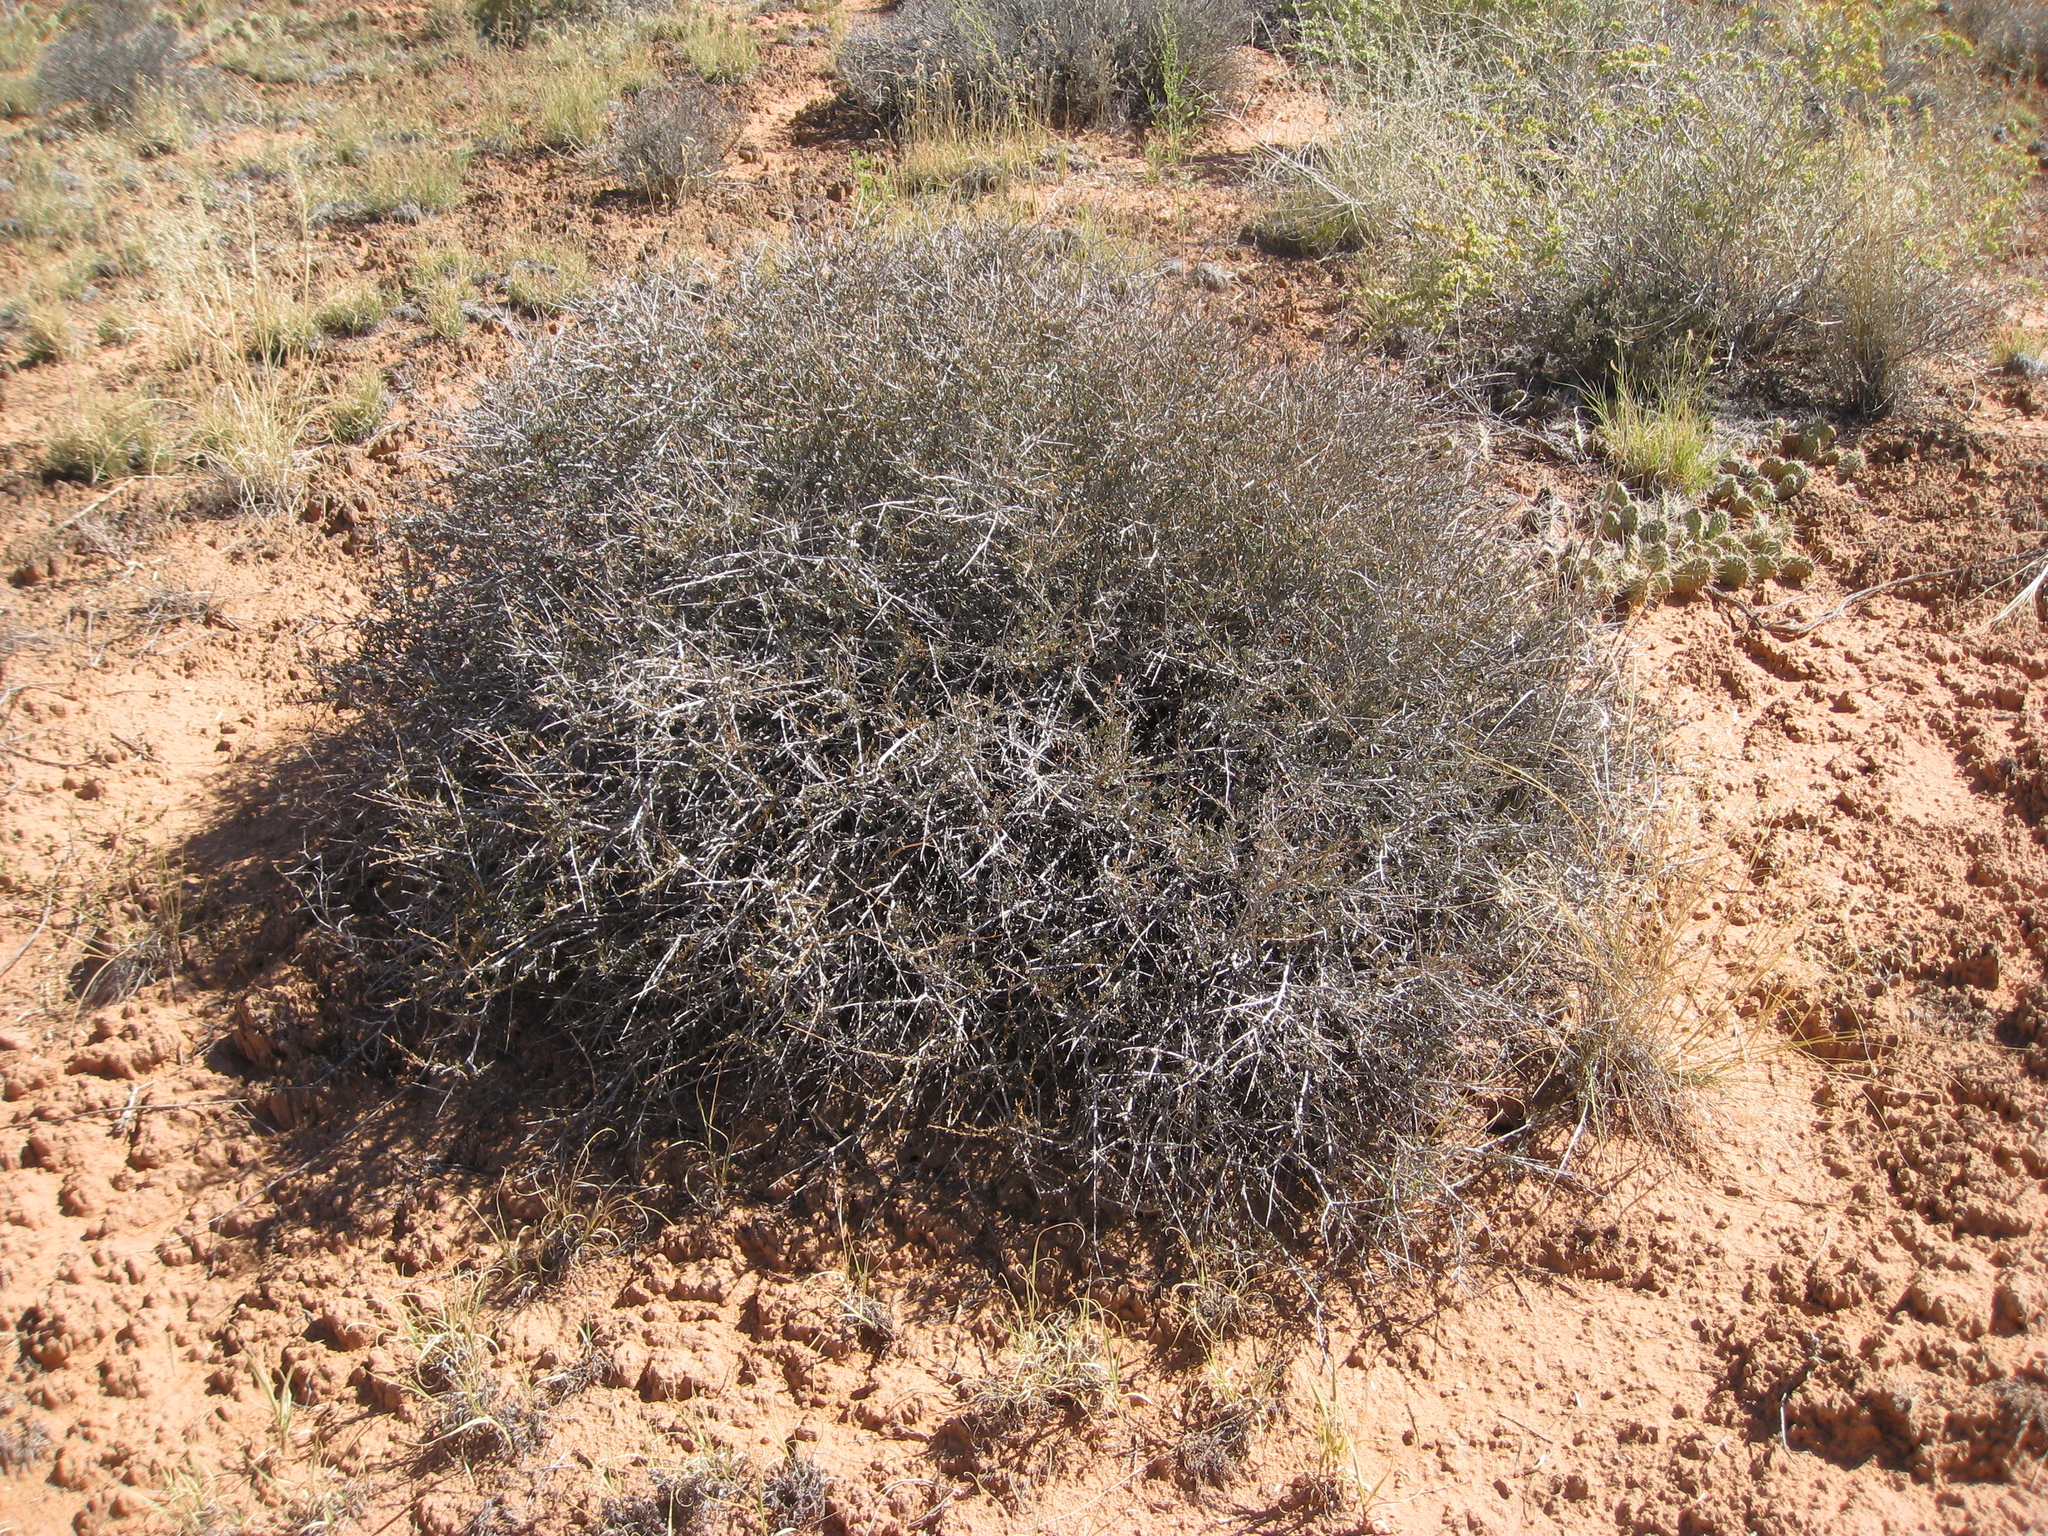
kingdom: Plantae
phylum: Tracheophyta
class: Magnoliopsida
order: Rosales
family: Rosaceae
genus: Coleogyne
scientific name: Coleogyne ramosissima
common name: Blackbrush
